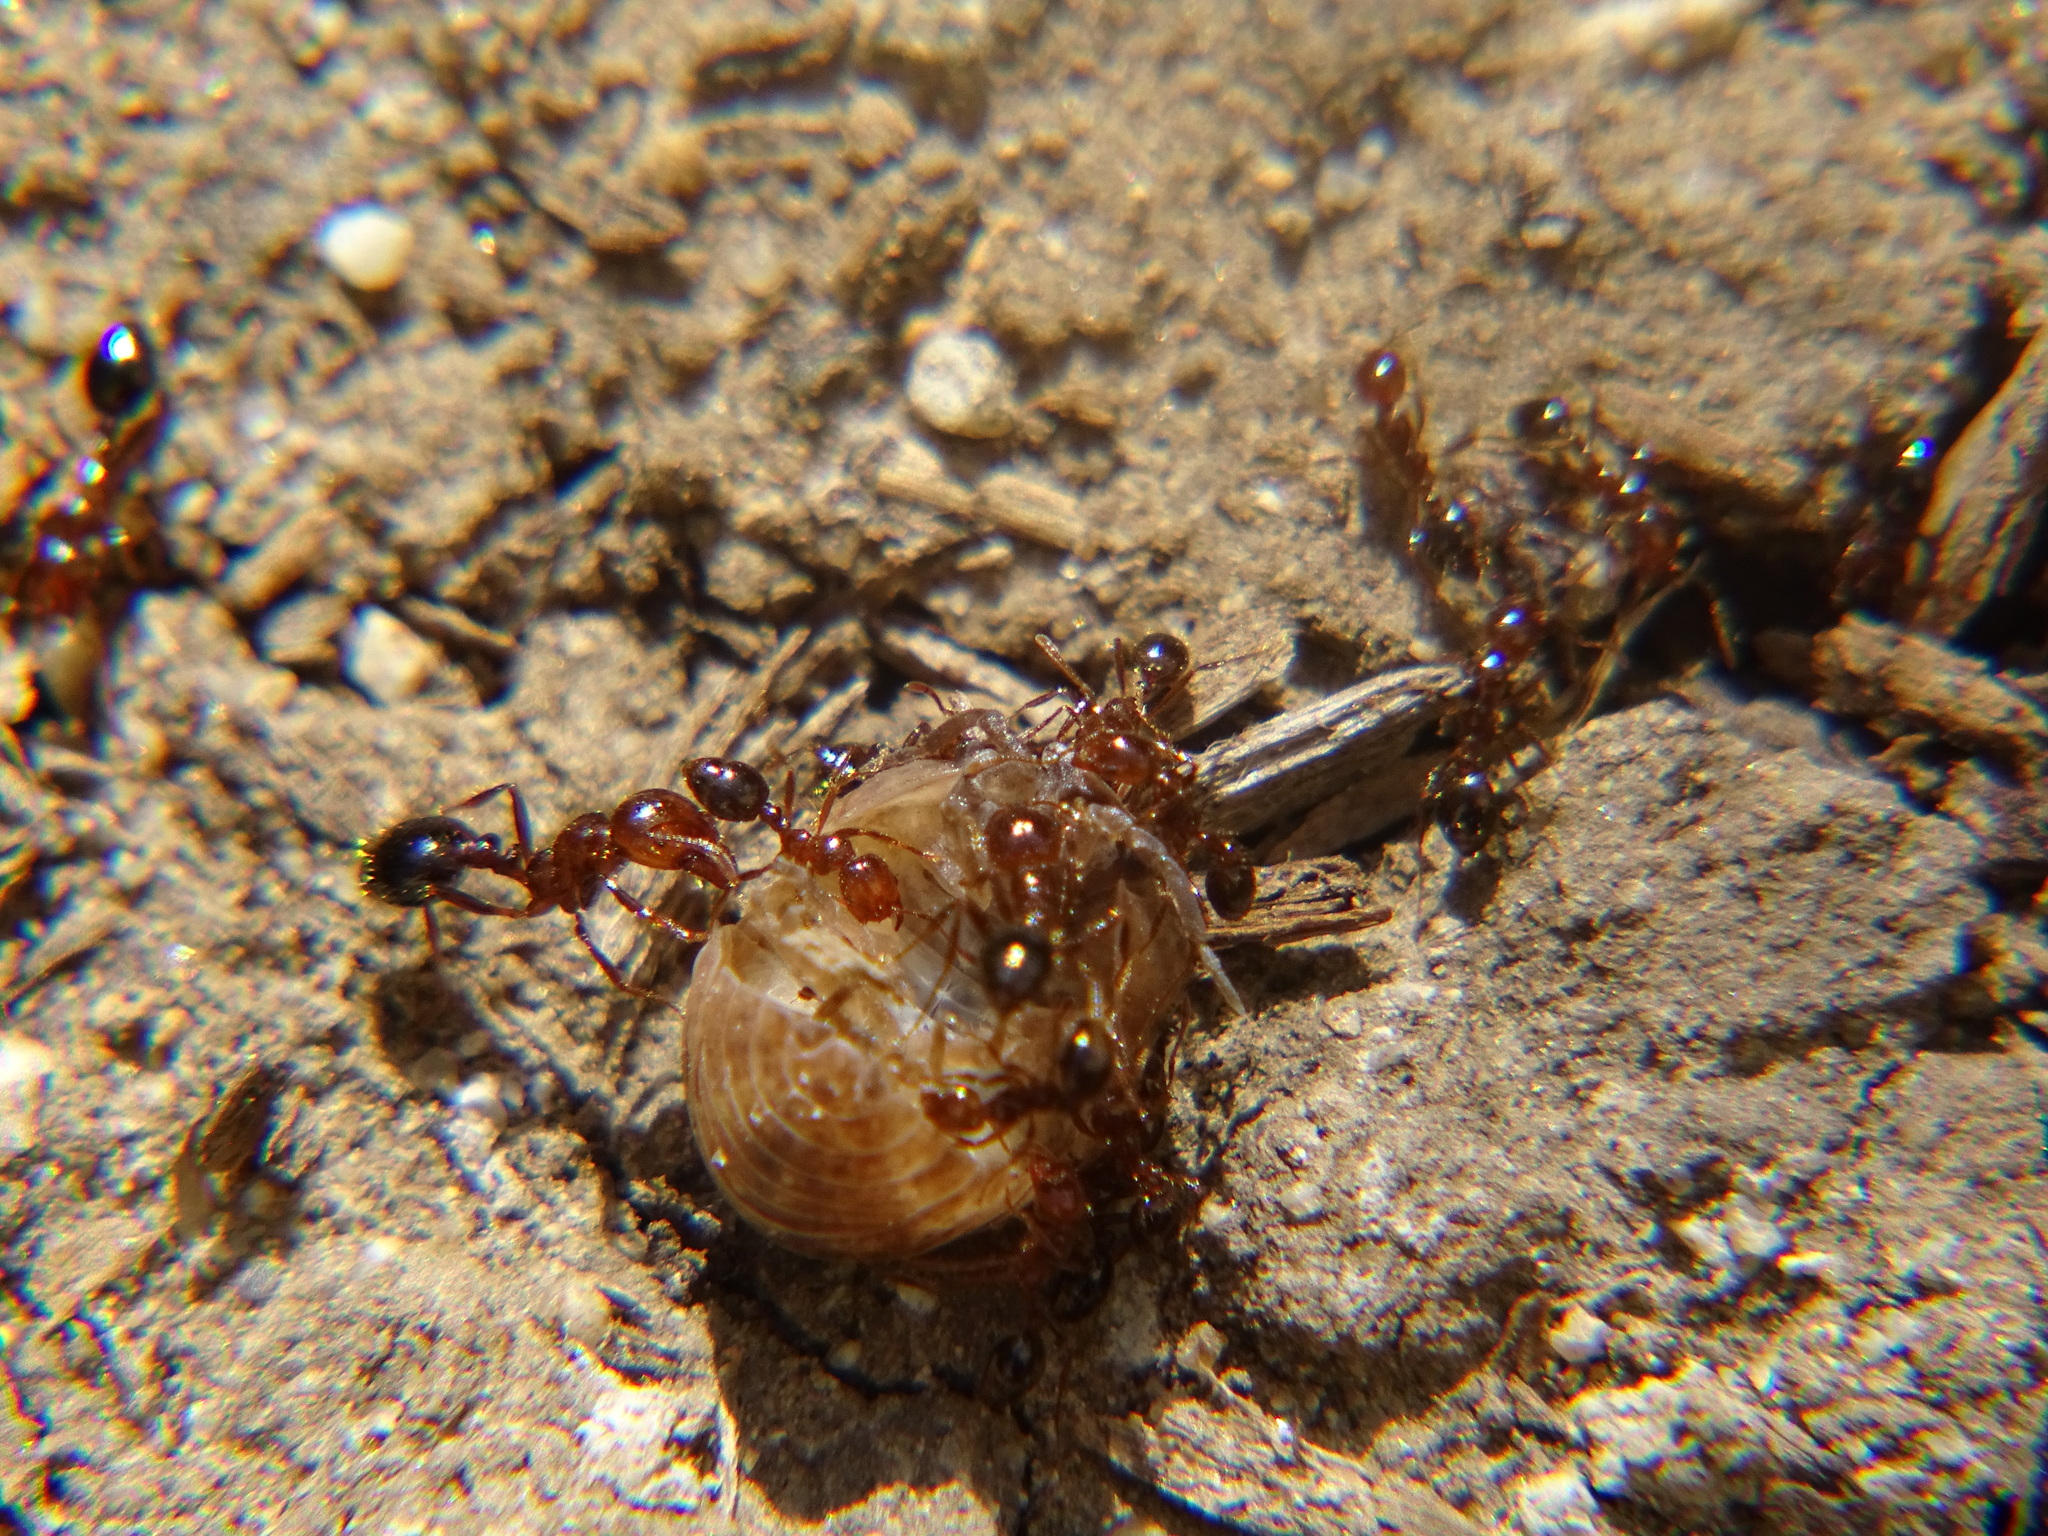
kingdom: Animalia
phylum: Arthropoda
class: Insecta
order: Hymenoptera
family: Formicidae
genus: Solenopsis
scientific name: Solenopsis invicta
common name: Red imported fire ant
